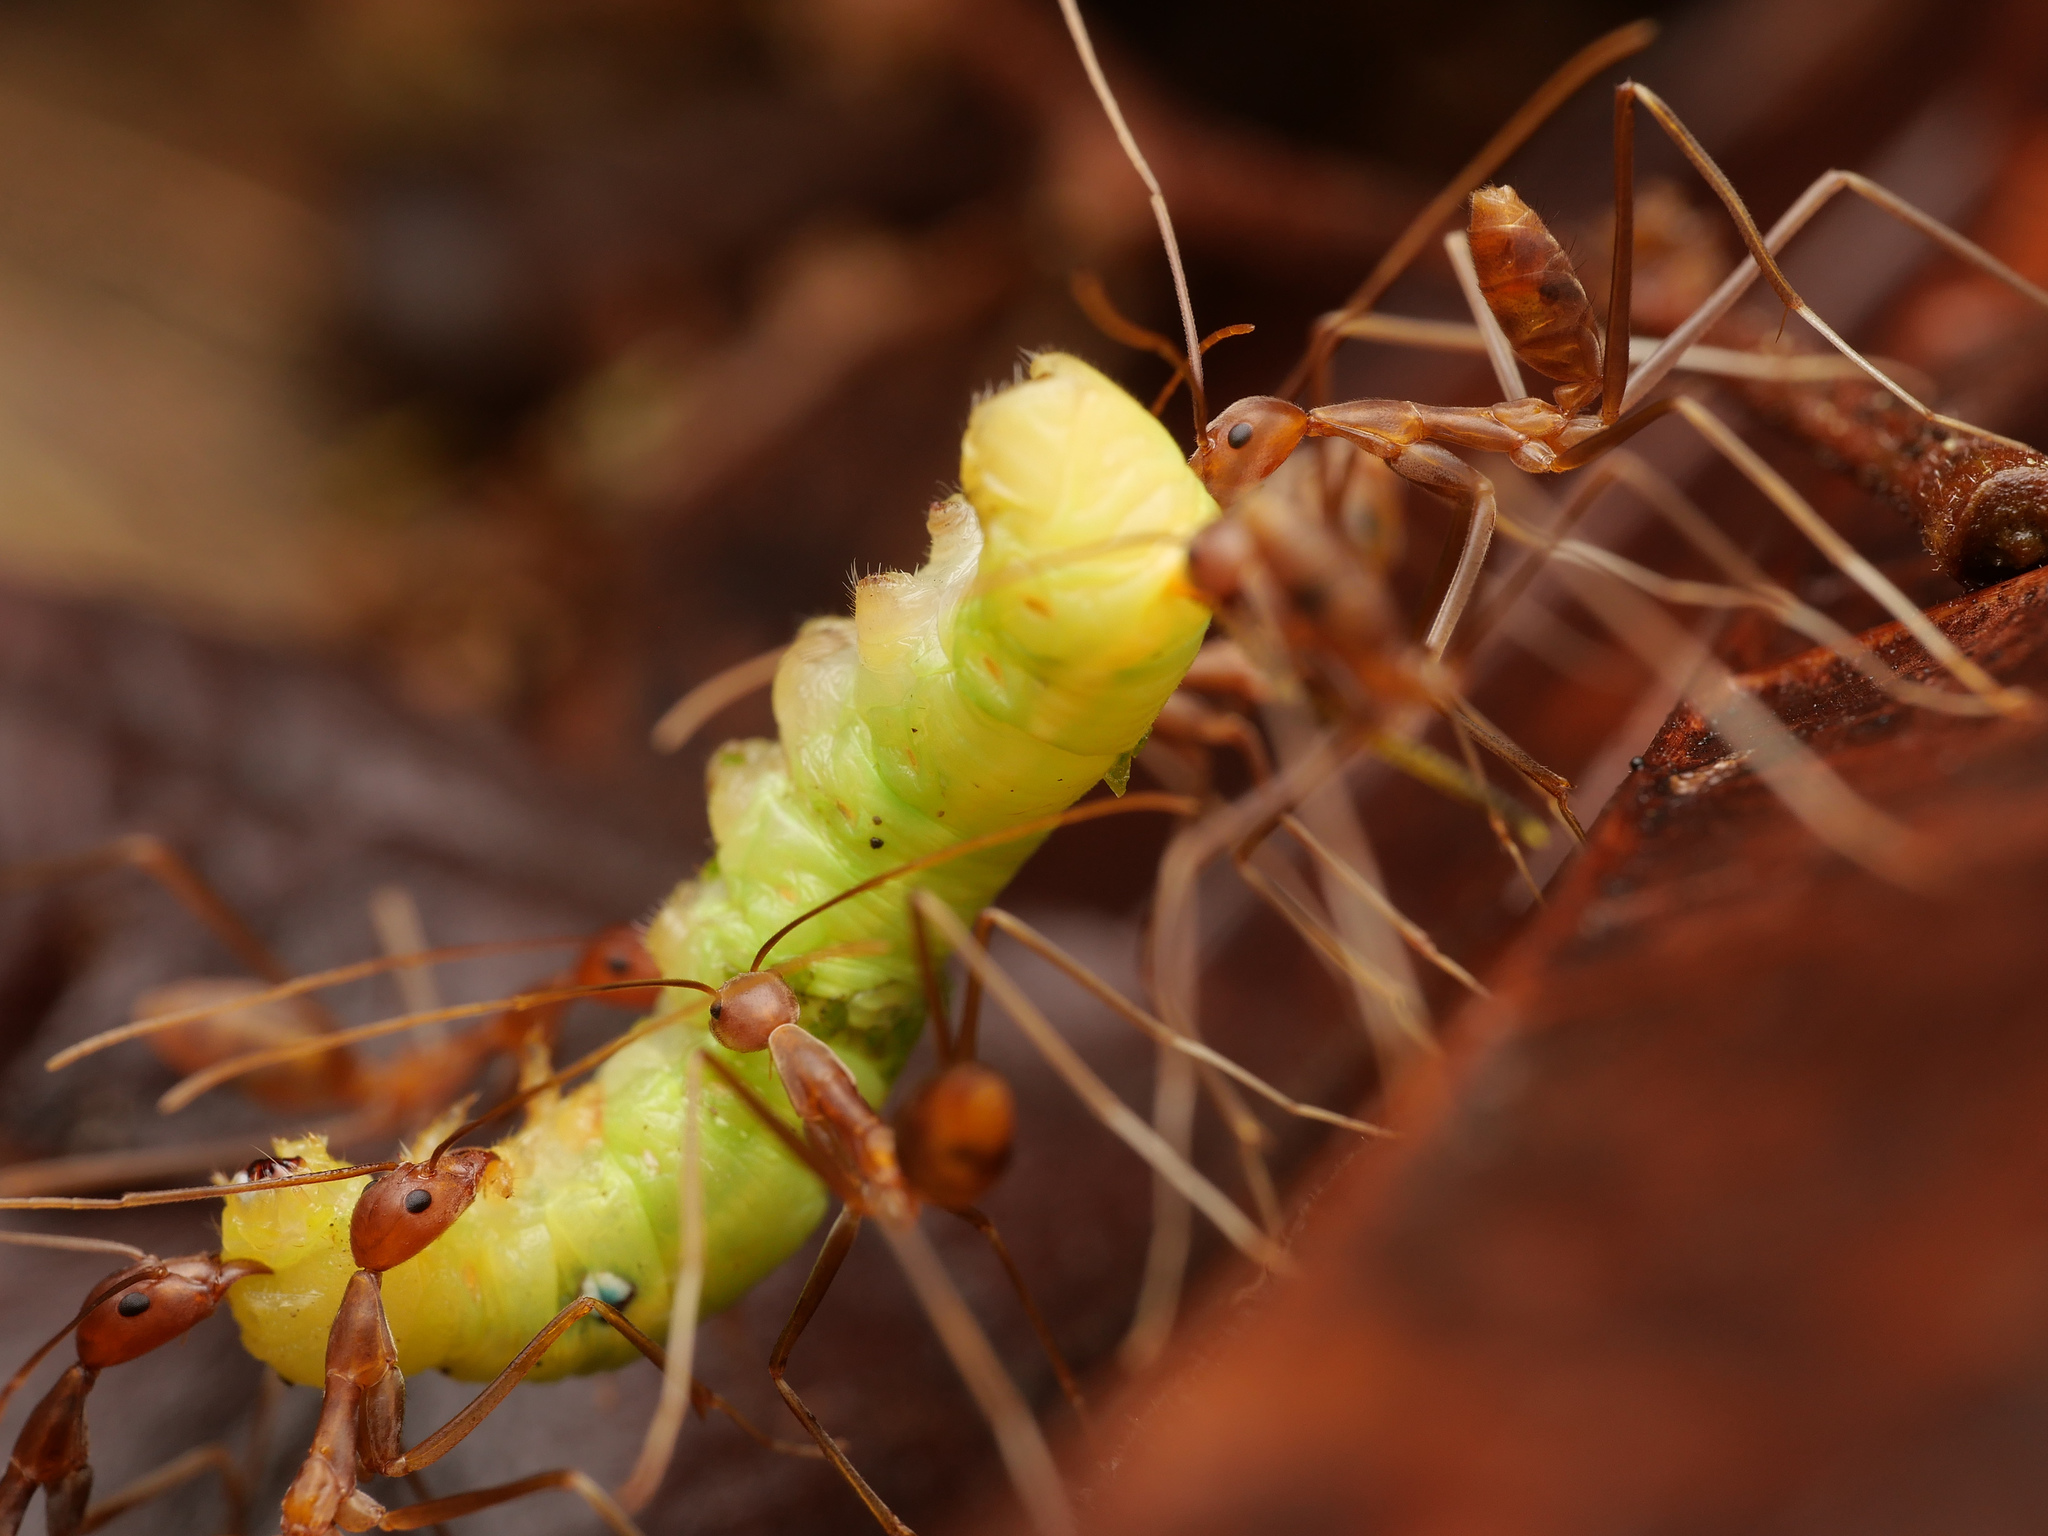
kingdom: Animalia
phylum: Arthropoda
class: Insecta
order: Hymenoptera
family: Formicidae
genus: Leptomyrmex
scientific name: Leptomyrmex puberulus
